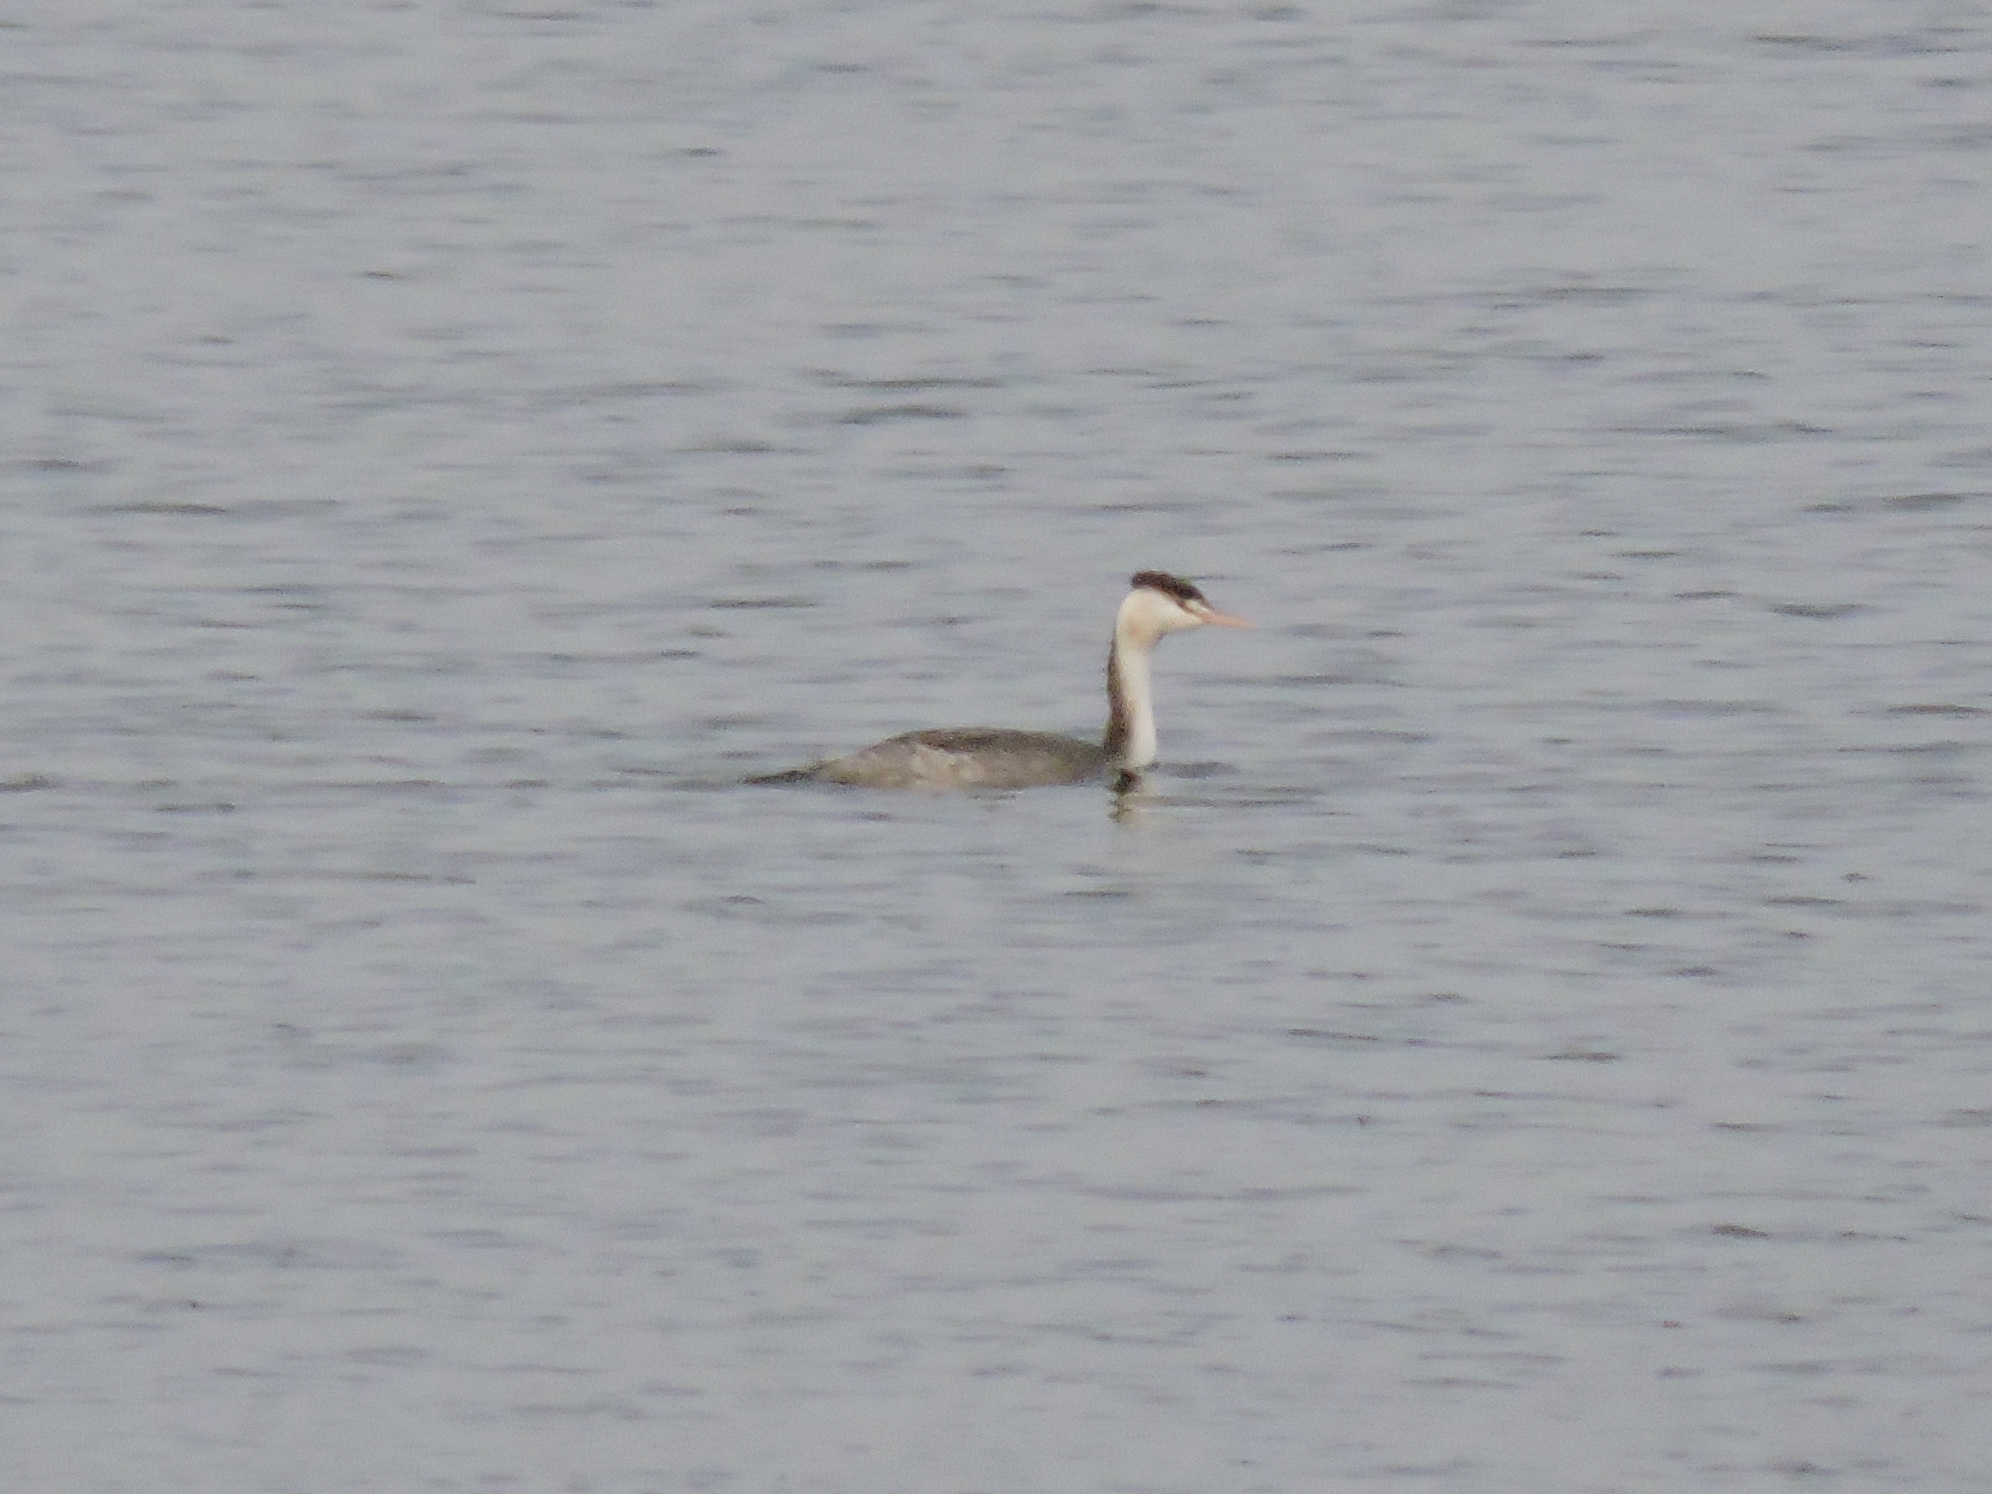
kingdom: Animalia
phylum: Chordata
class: Aves
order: Podicipediformes
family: Podicipedidae
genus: Podiceps
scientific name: Podiceps cristatus
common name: Great crested grebe
